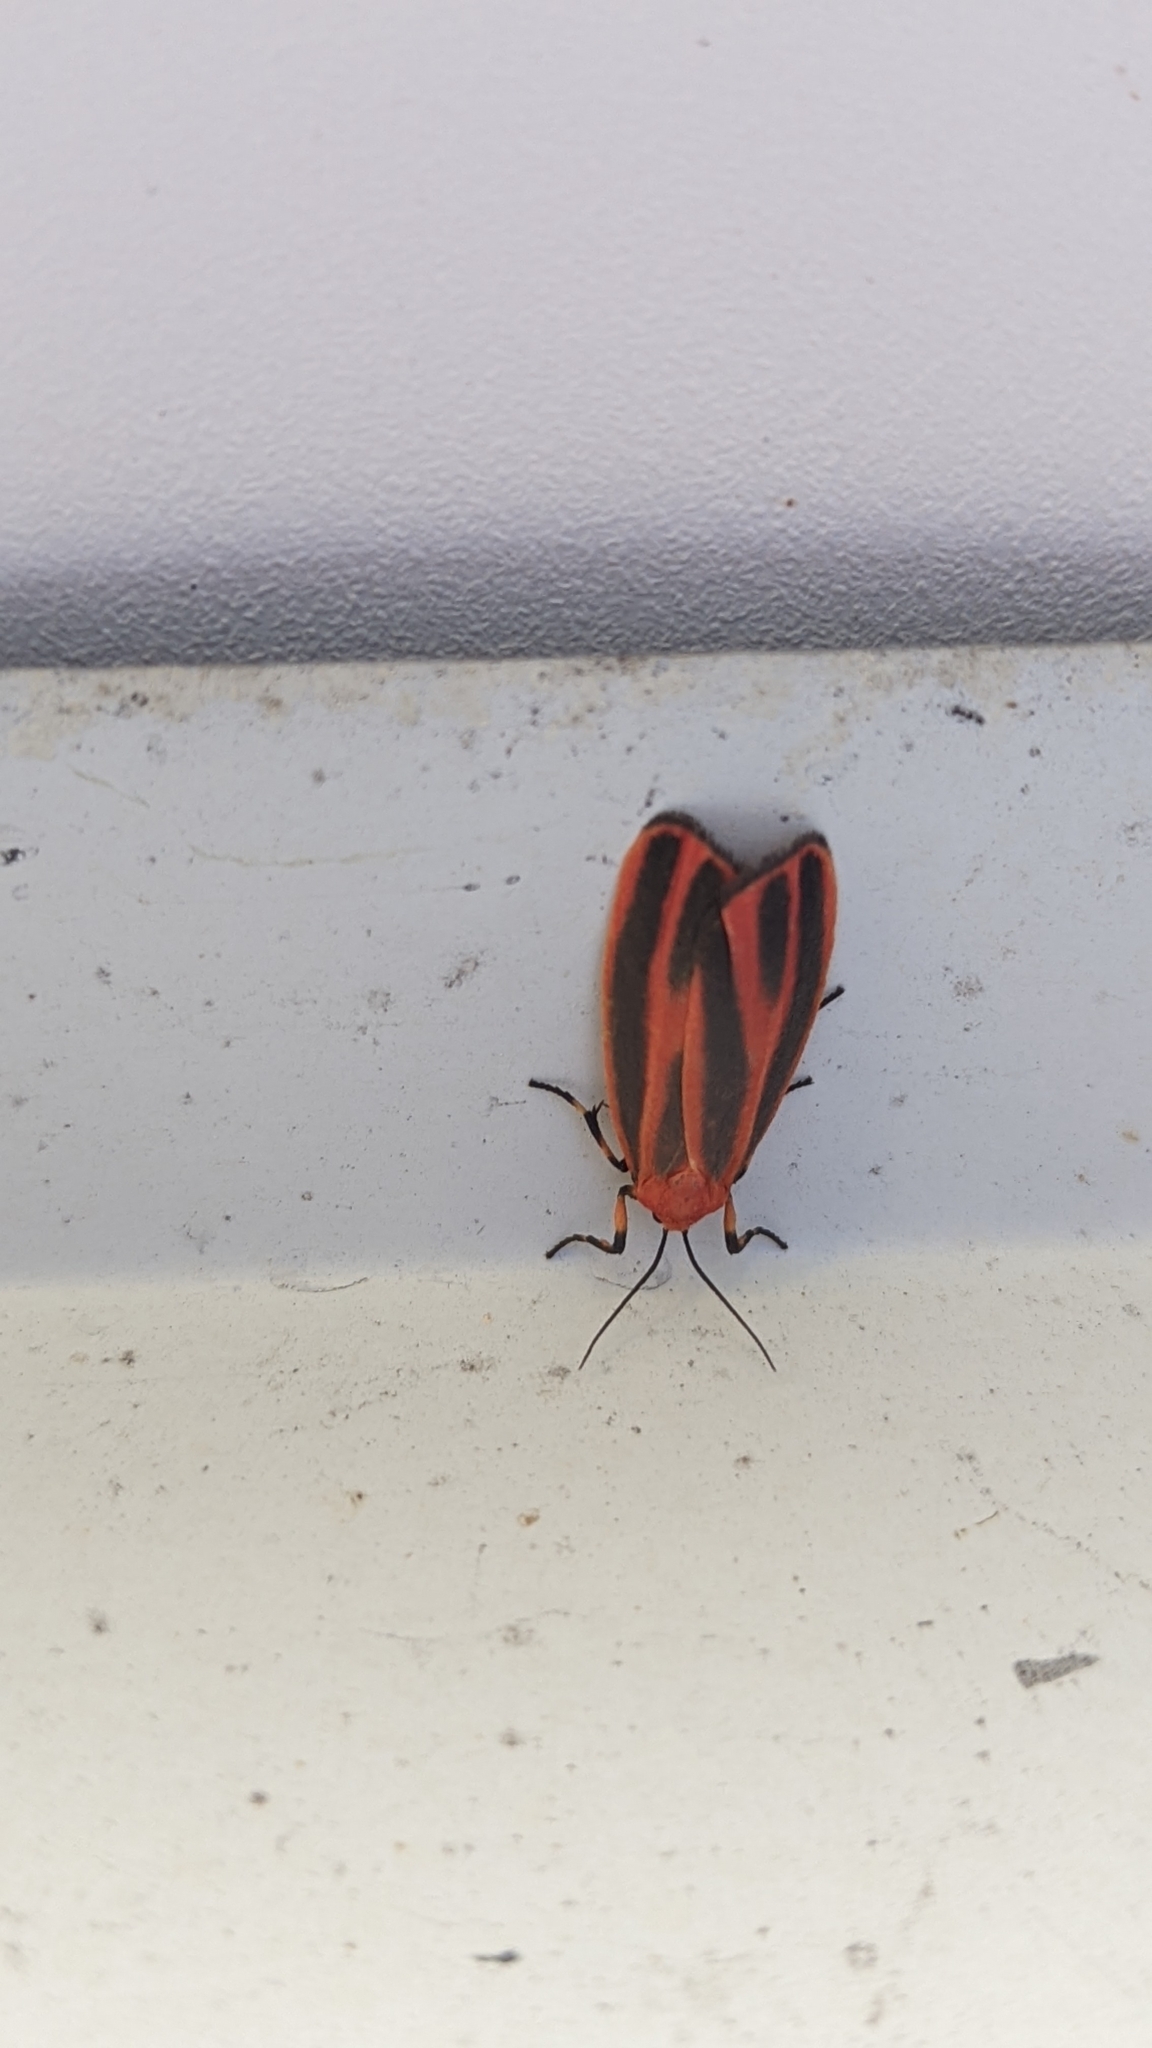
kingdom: Animalia
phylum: Arthropoda
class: Insecta
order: Lepidoptera
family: Erebidae
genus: Hypoprepia
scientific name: Hypoprepia miniata
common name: Scarlet-winged lichen moth
